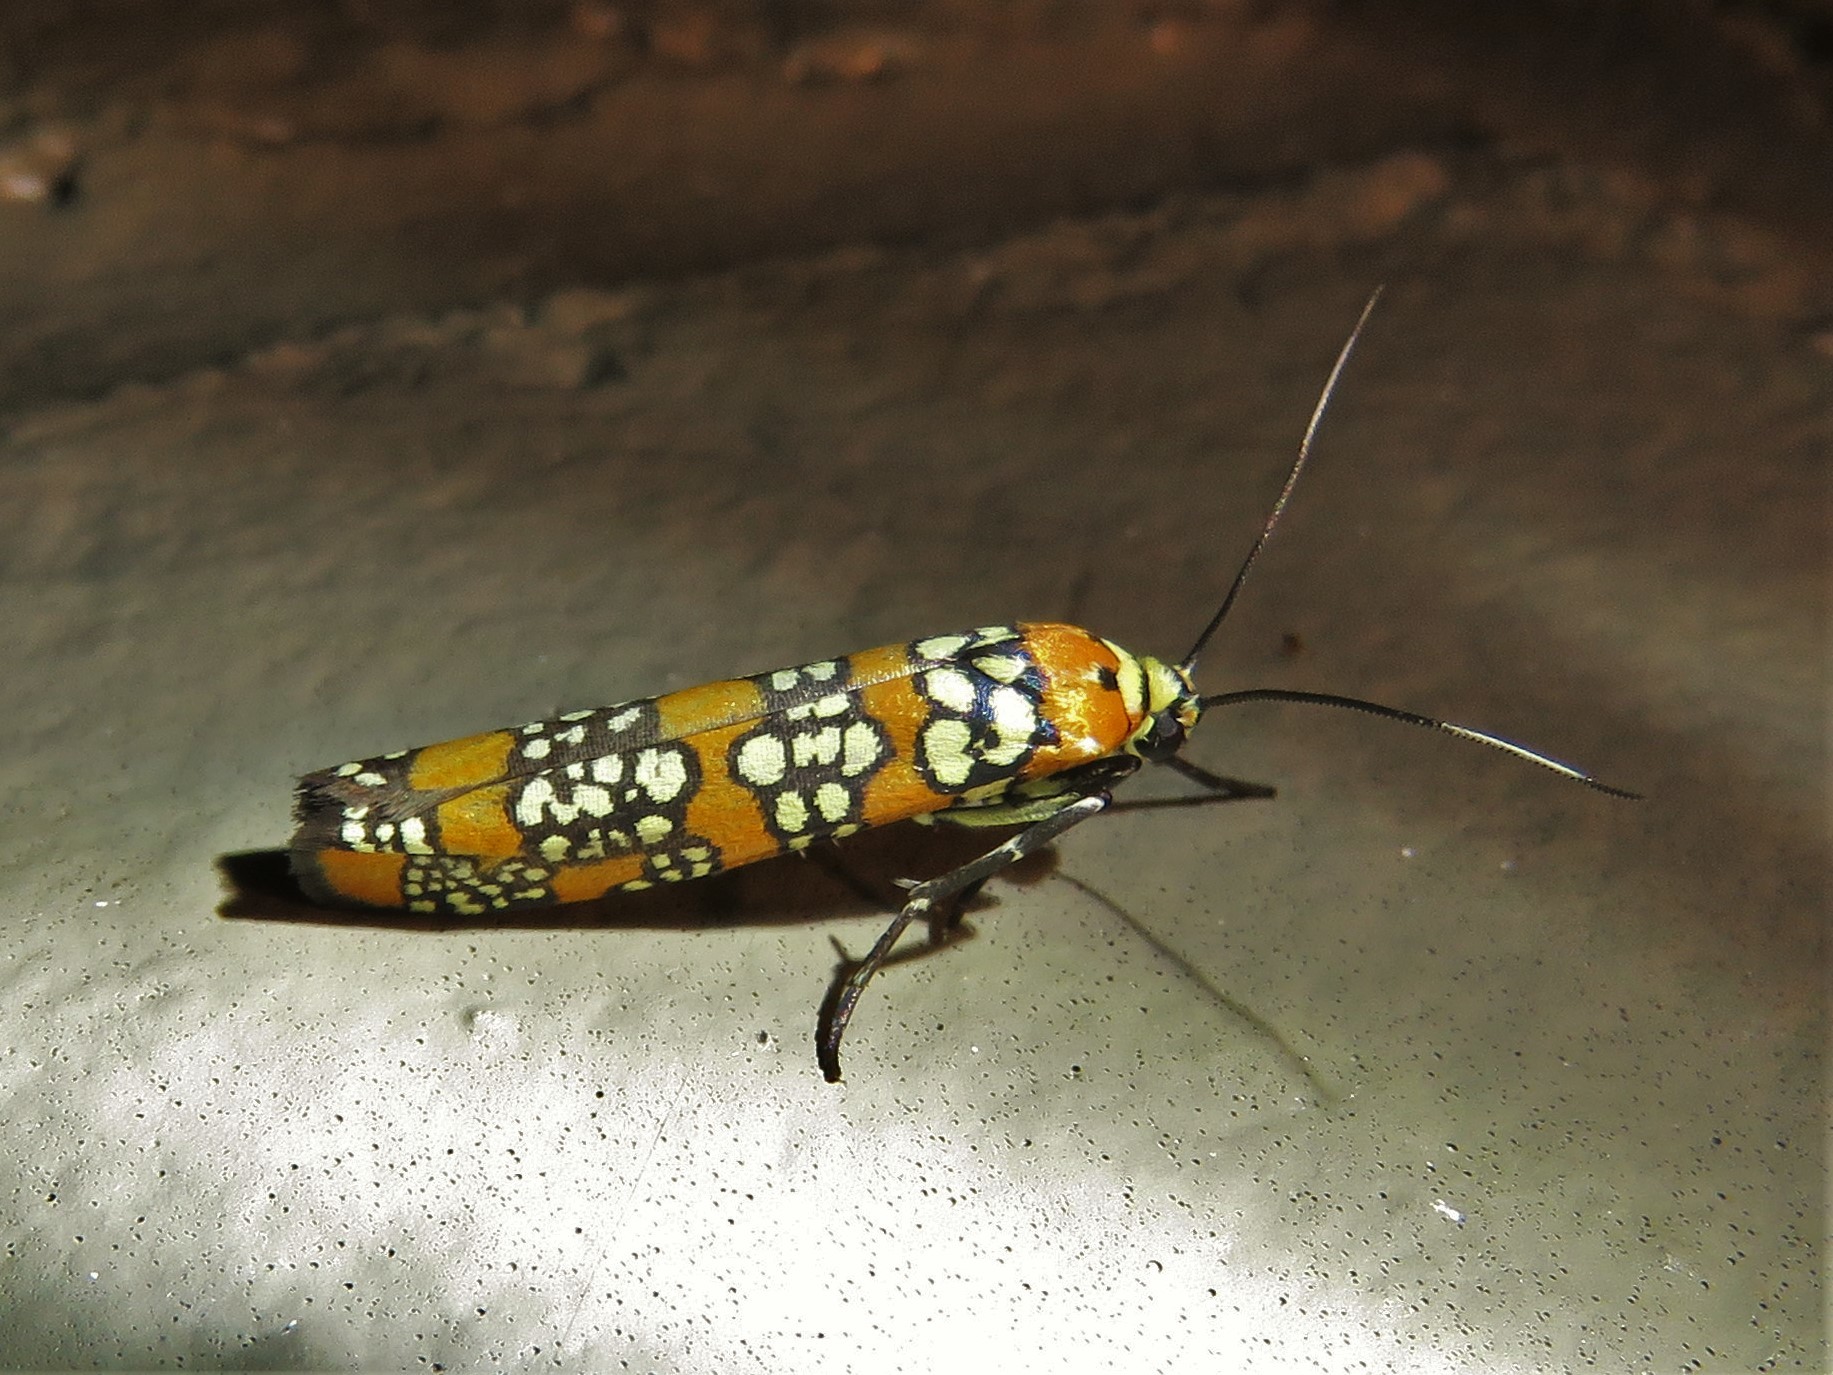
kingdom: Animalia
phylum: Arthropoda
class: Insecta
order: Lepidoptera
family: Attevidae
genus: Atteva
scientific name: Atteva punctella
